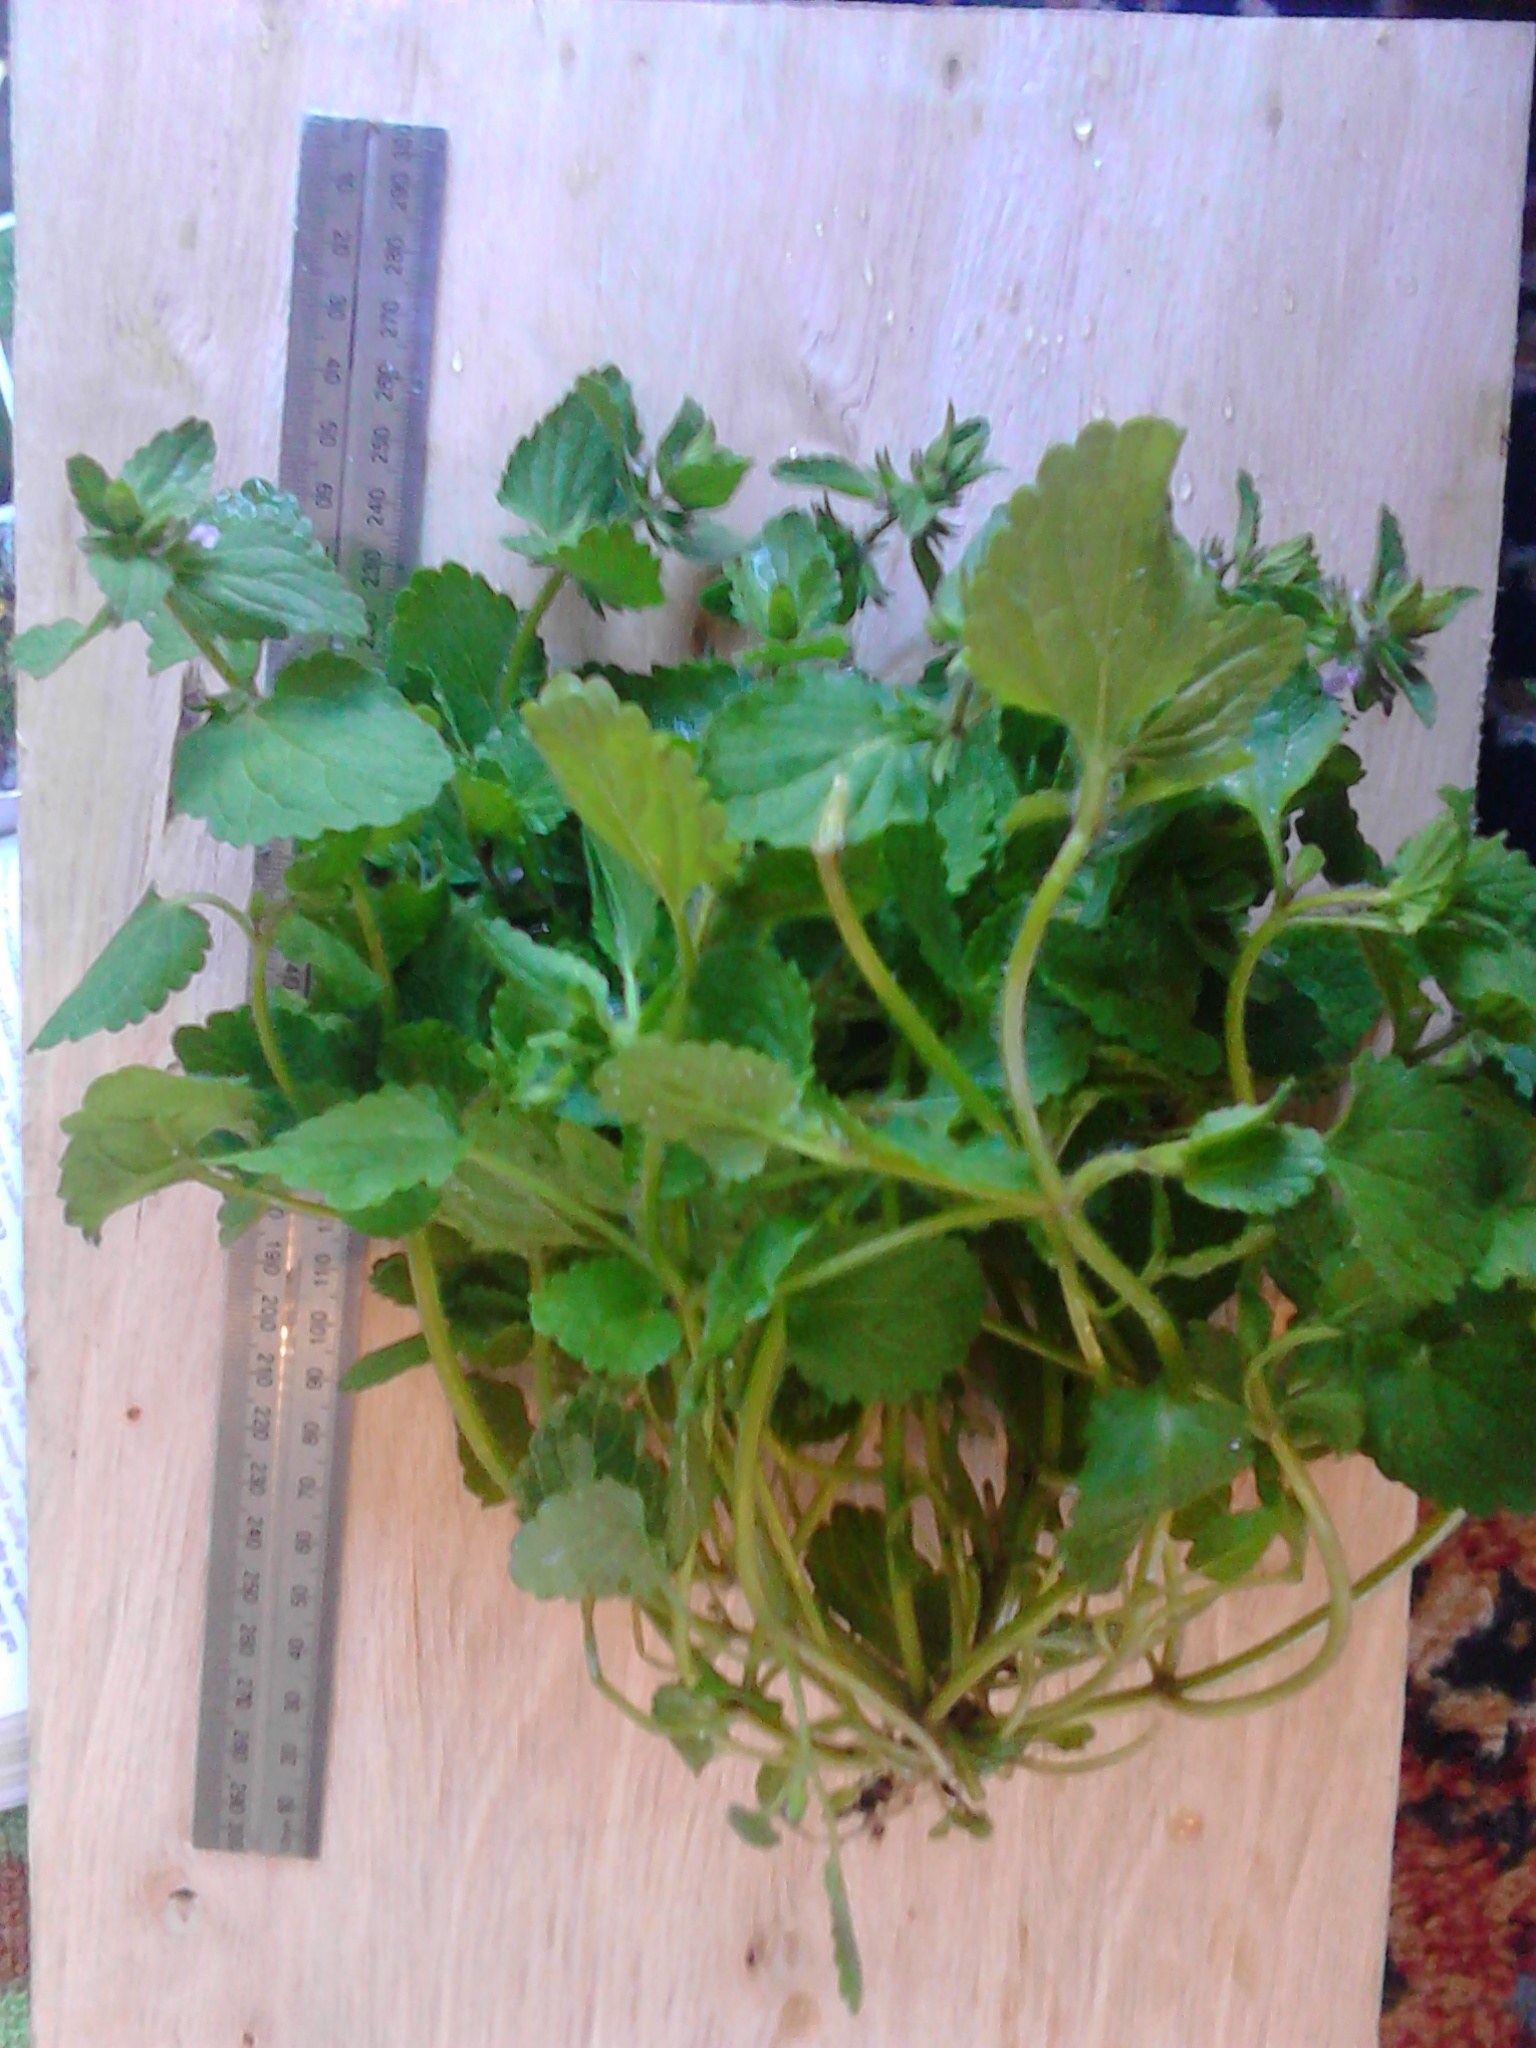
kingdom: Plantae
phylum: Tracheophyta
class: Magnoliopsida
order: Lamiales
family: Lamiaceae
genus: Stachys
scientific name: Stachys arvensis
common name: Field woundwort
